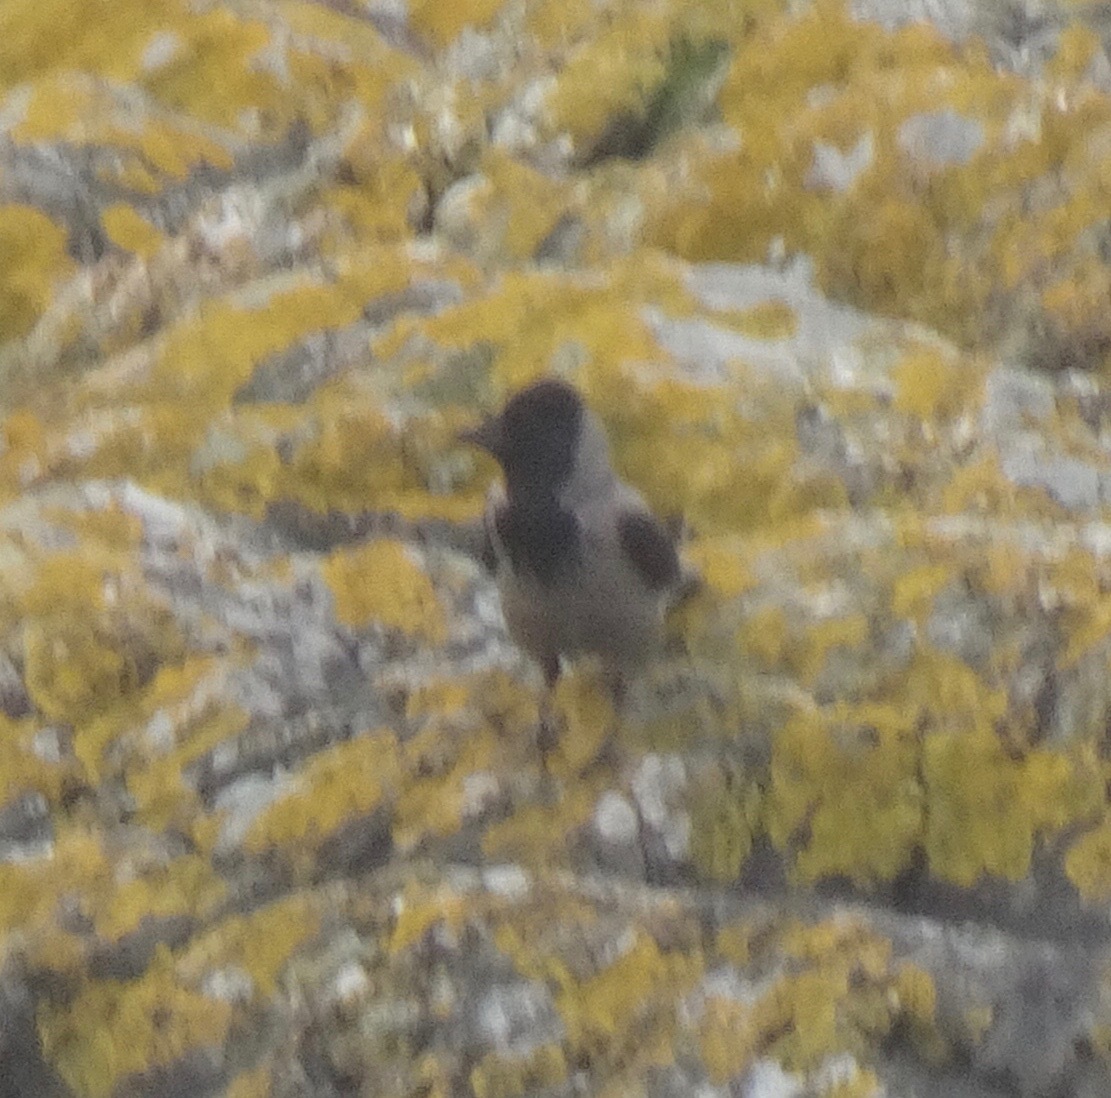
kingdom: Animalia
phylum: Chordata
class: Aves
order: Passeriformes
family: Corvidae
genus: Corvus
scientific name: Corvus cornix
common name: Hooded crow
